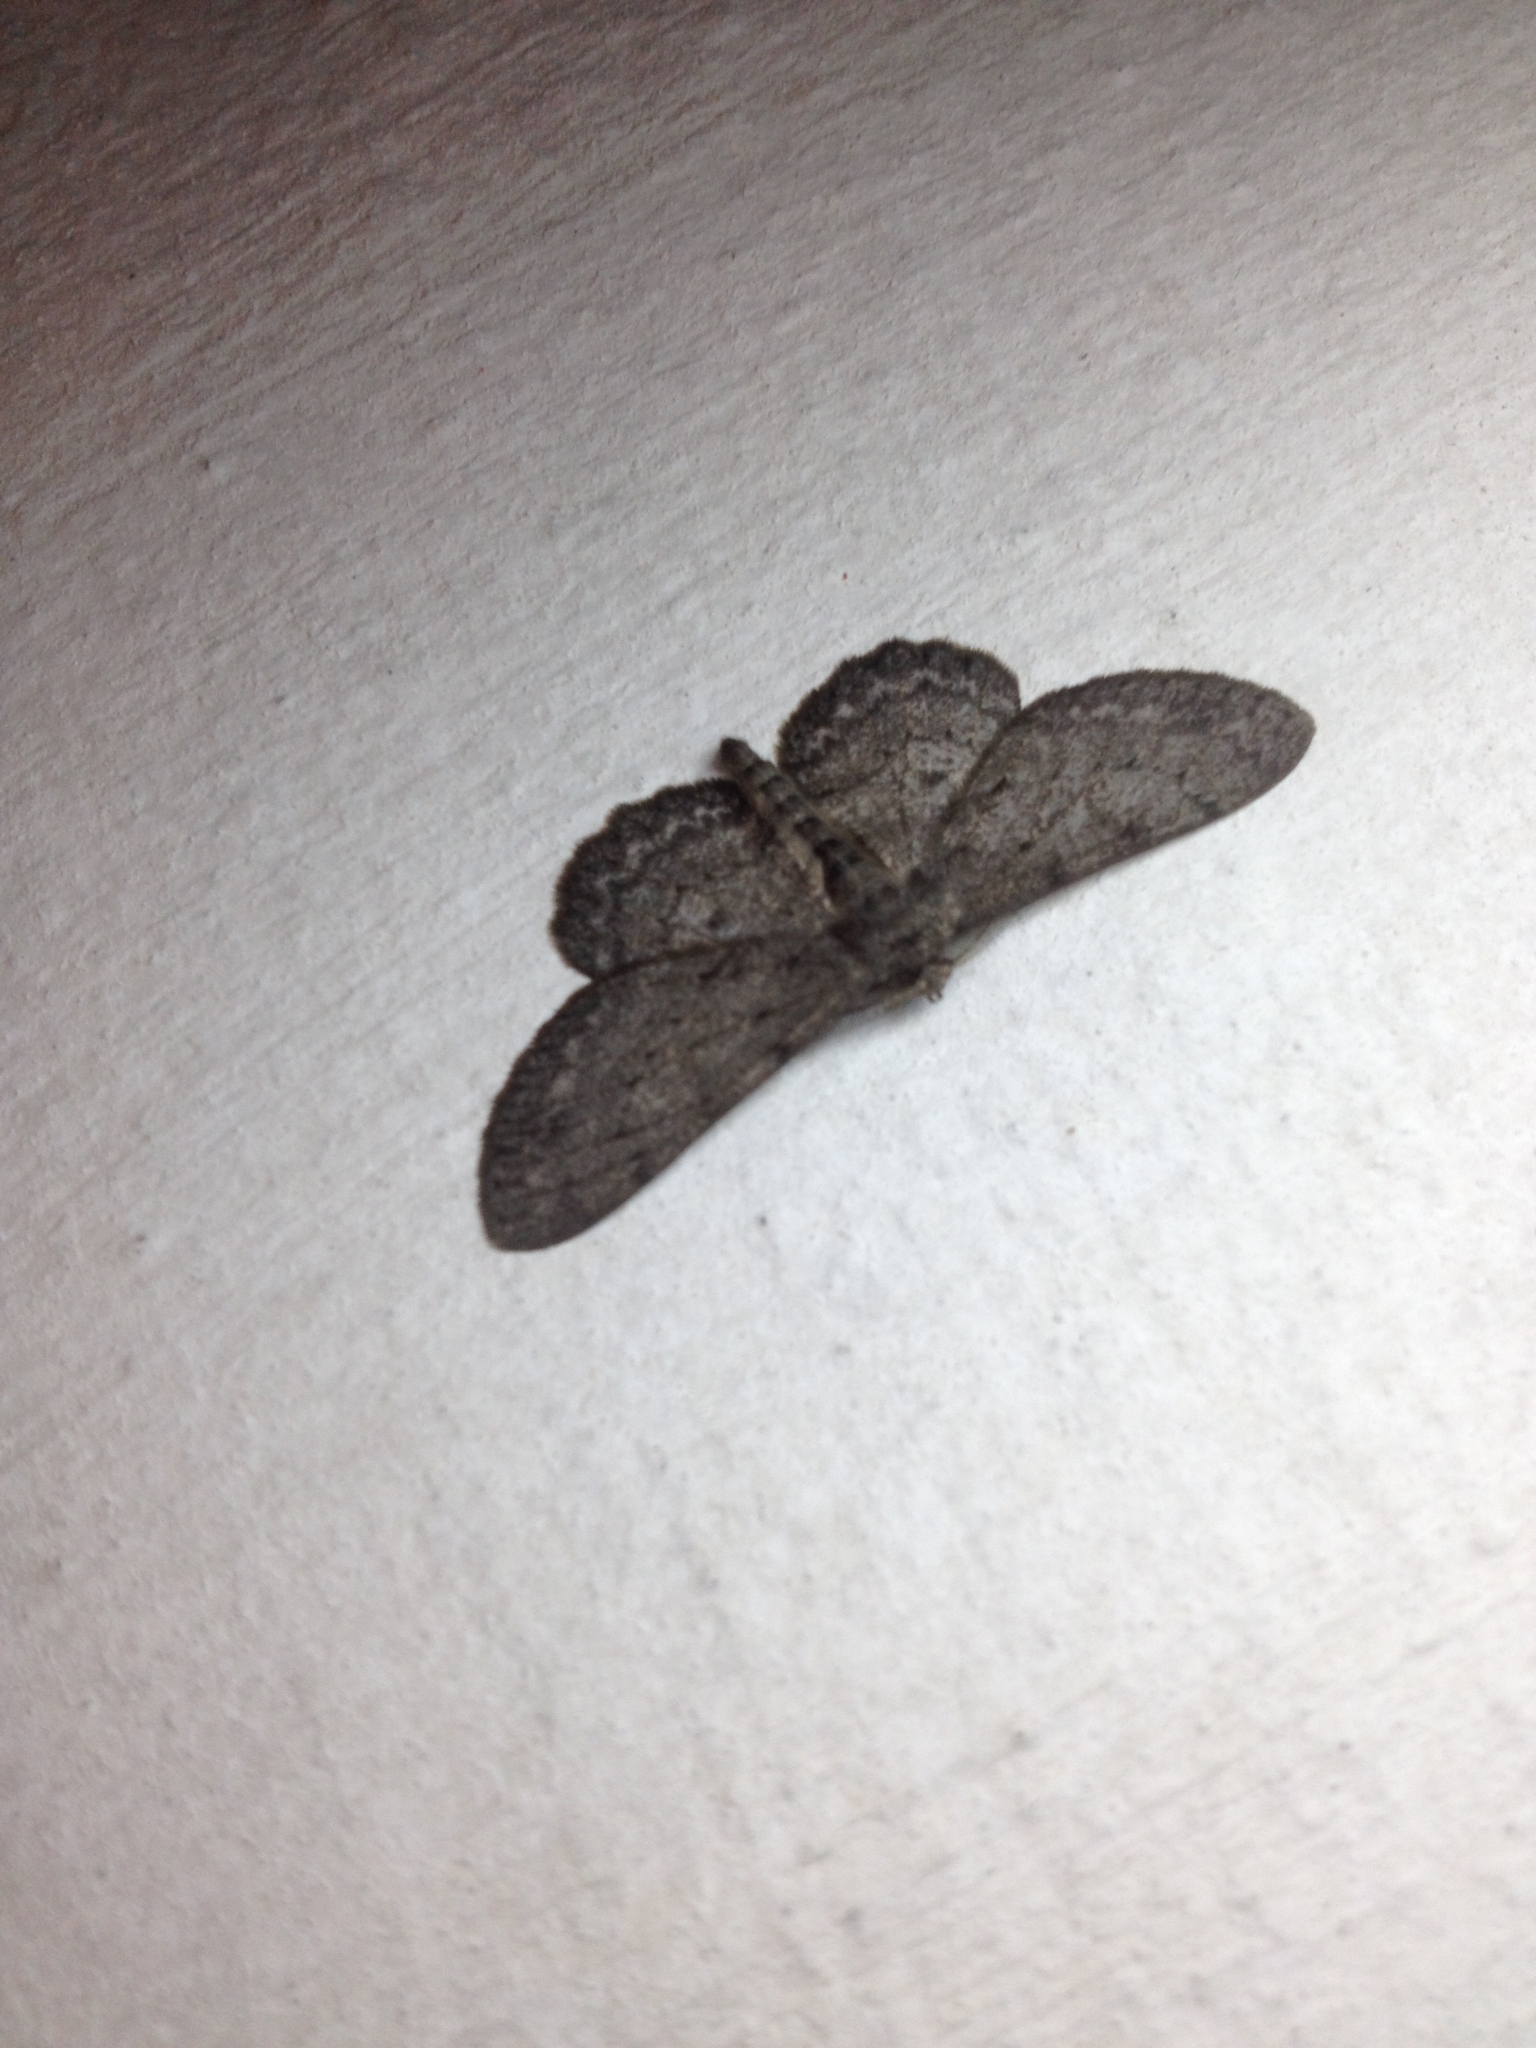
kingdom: Animalia
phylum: Arthropoda
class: Insecta
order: Lepidoptera
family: Geometridae
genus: Hypomecis
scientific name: Hypomecis punctinalis
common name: Pale oak beauty
